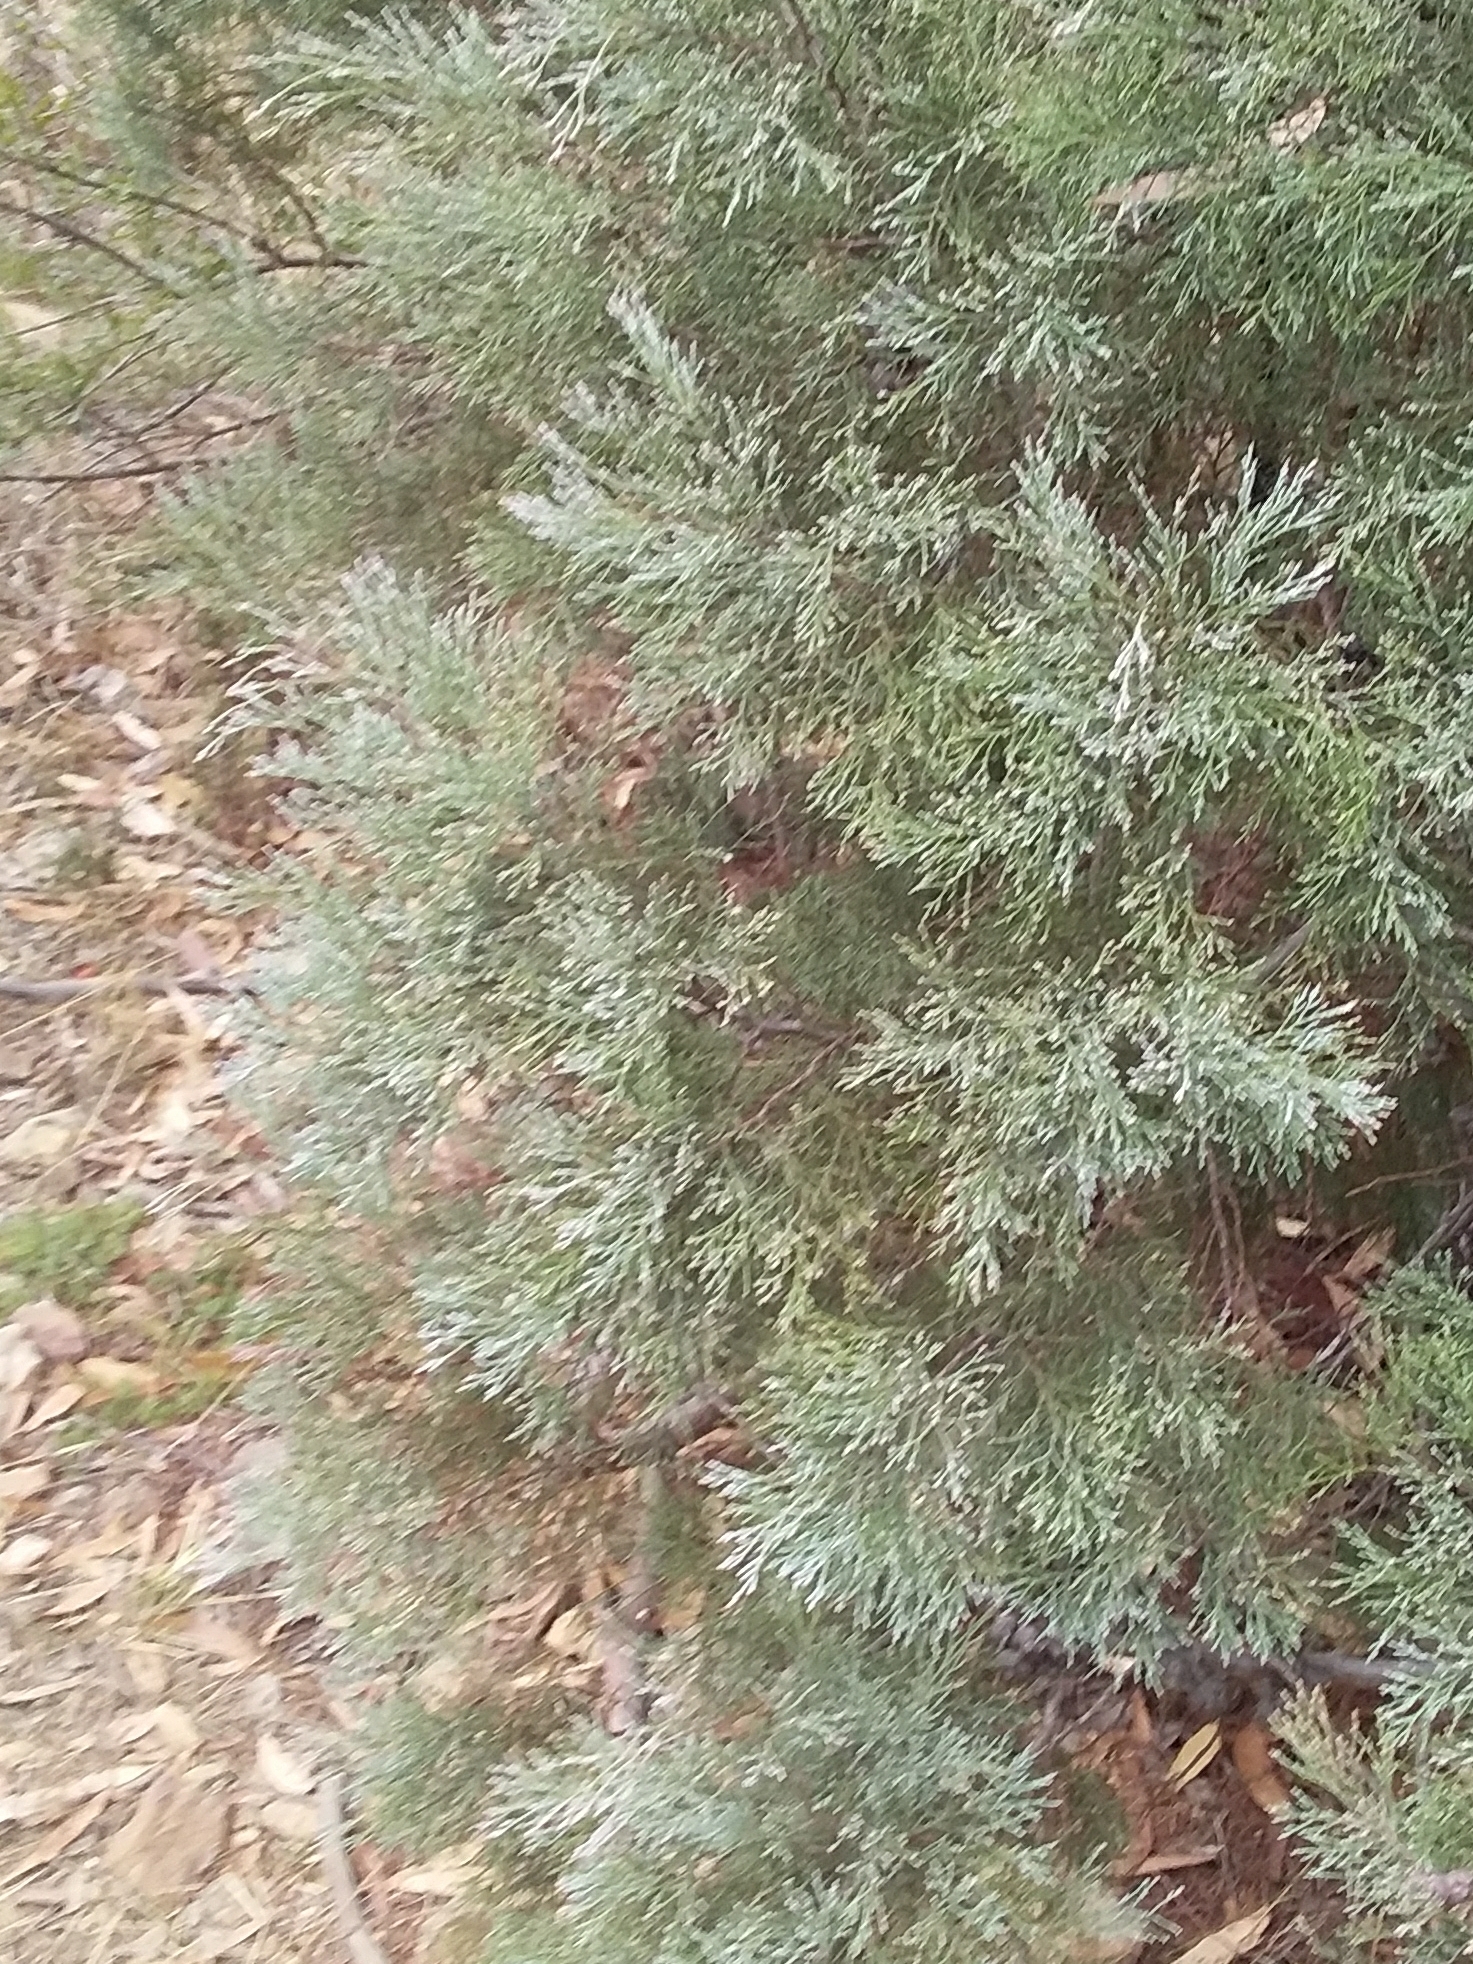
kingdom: Plantae
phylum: Tracheophyta
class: Pinopsida
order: Pinales
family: Cupressaceae
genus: Callitris
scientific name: Callitris rhomboidea
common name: Illawara mountain pine
